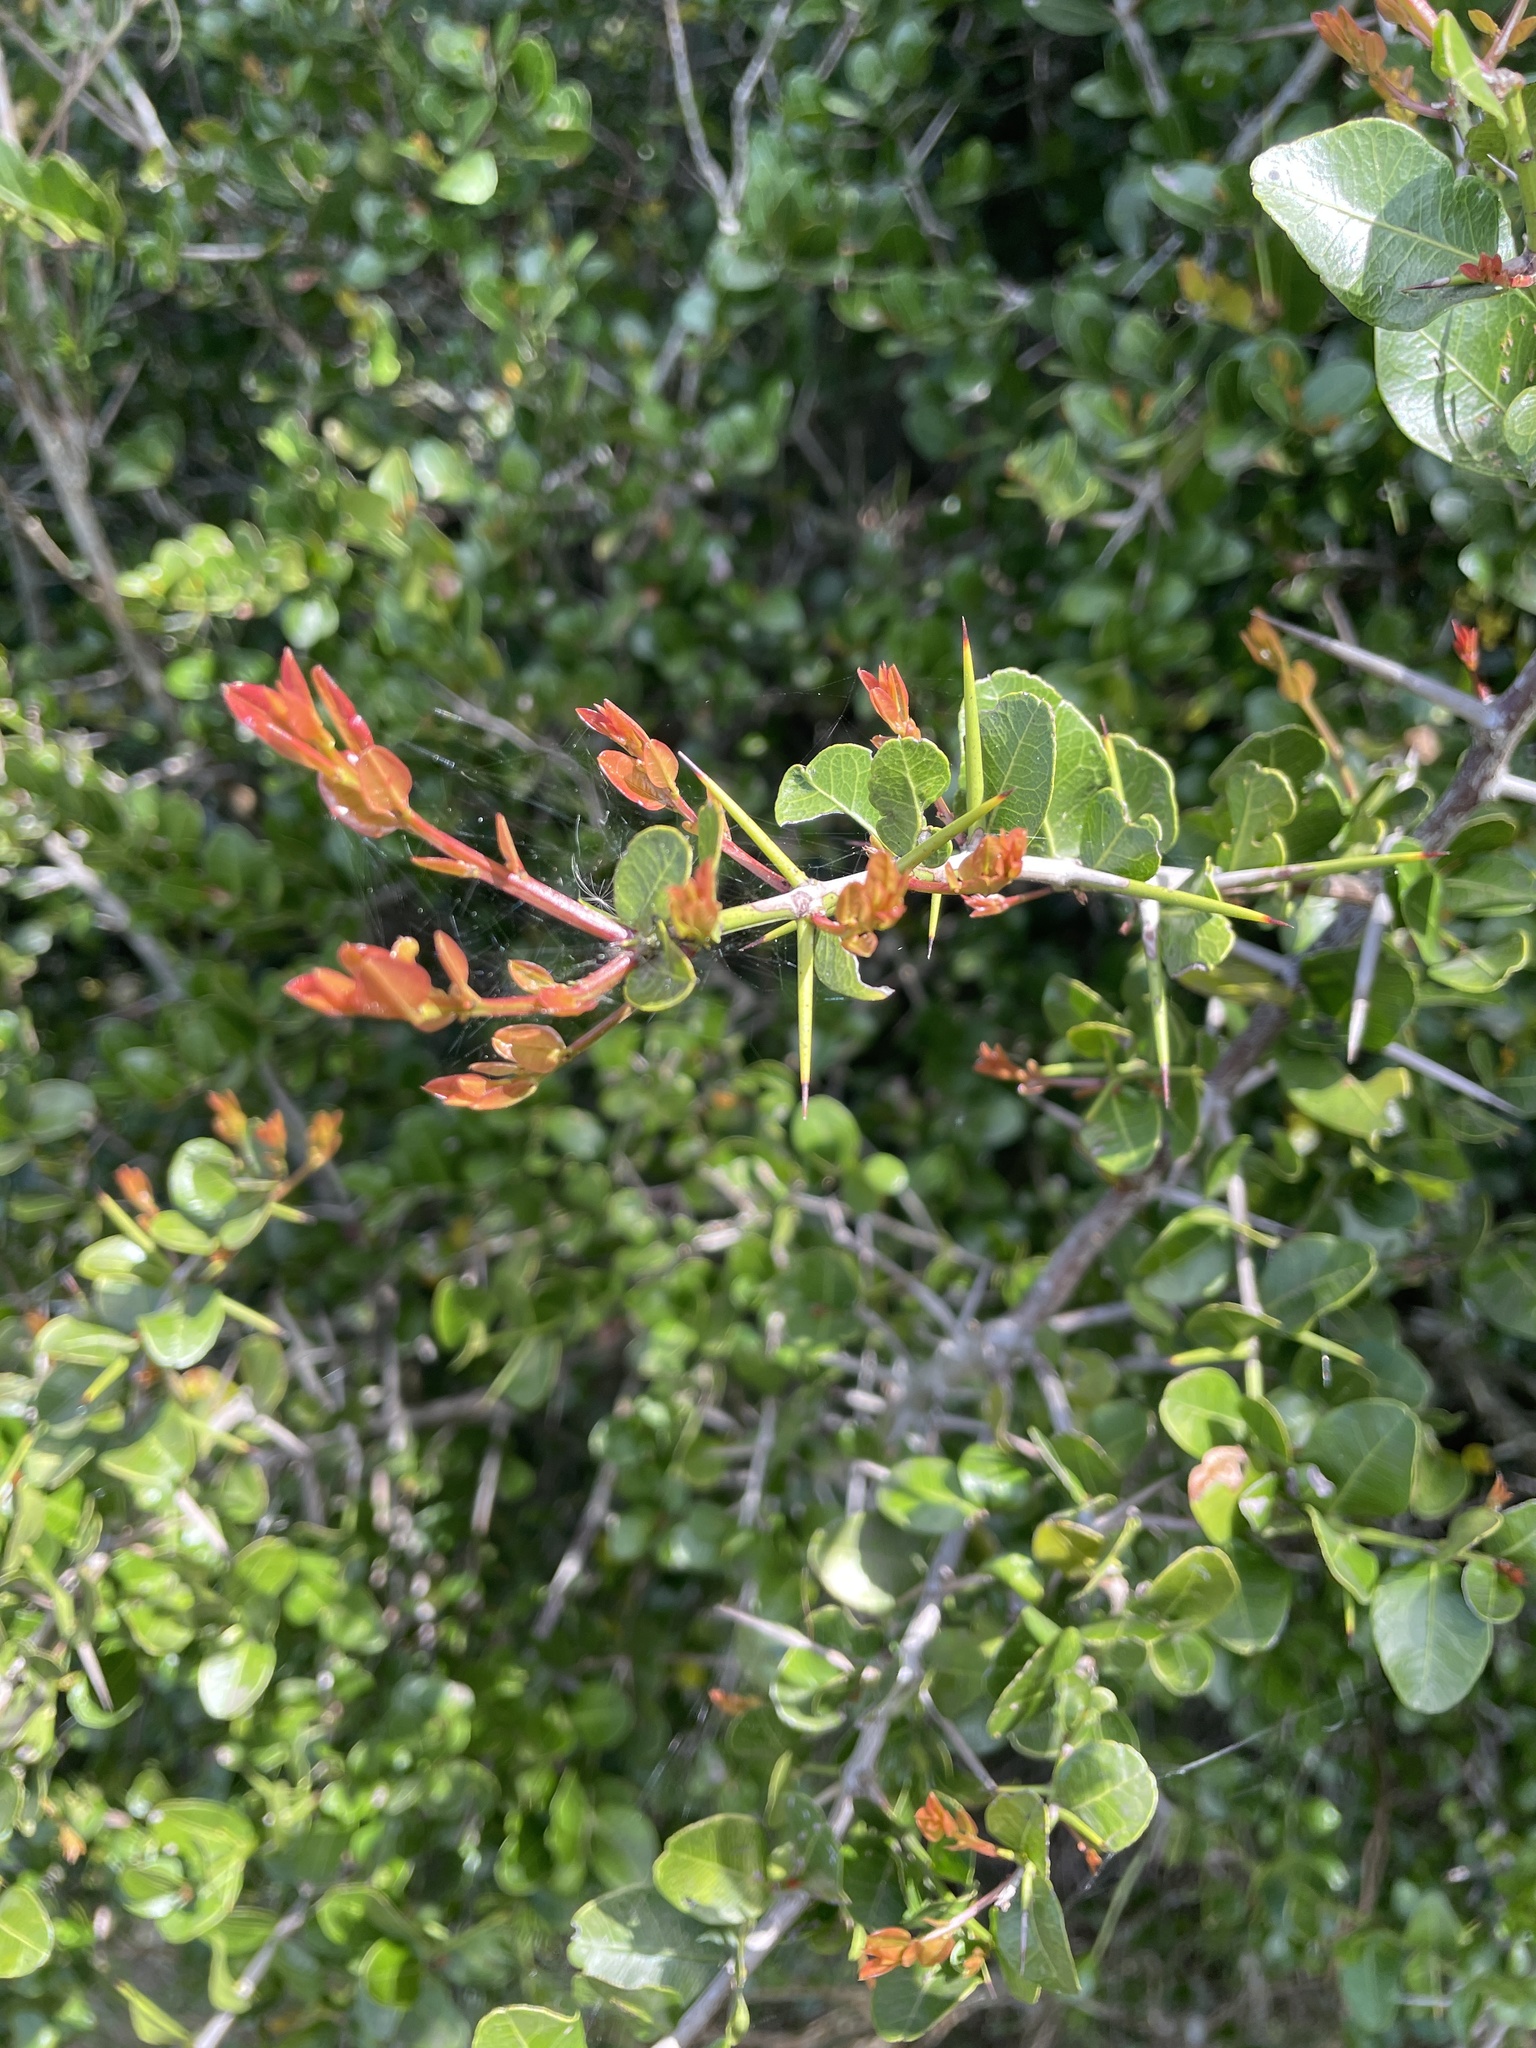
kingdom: Plantae
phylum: Tracheophyta
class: Magnoliopsida
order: Rosales
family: Rhamnaceae
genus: Scutia
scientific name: Scutia buxifolia
